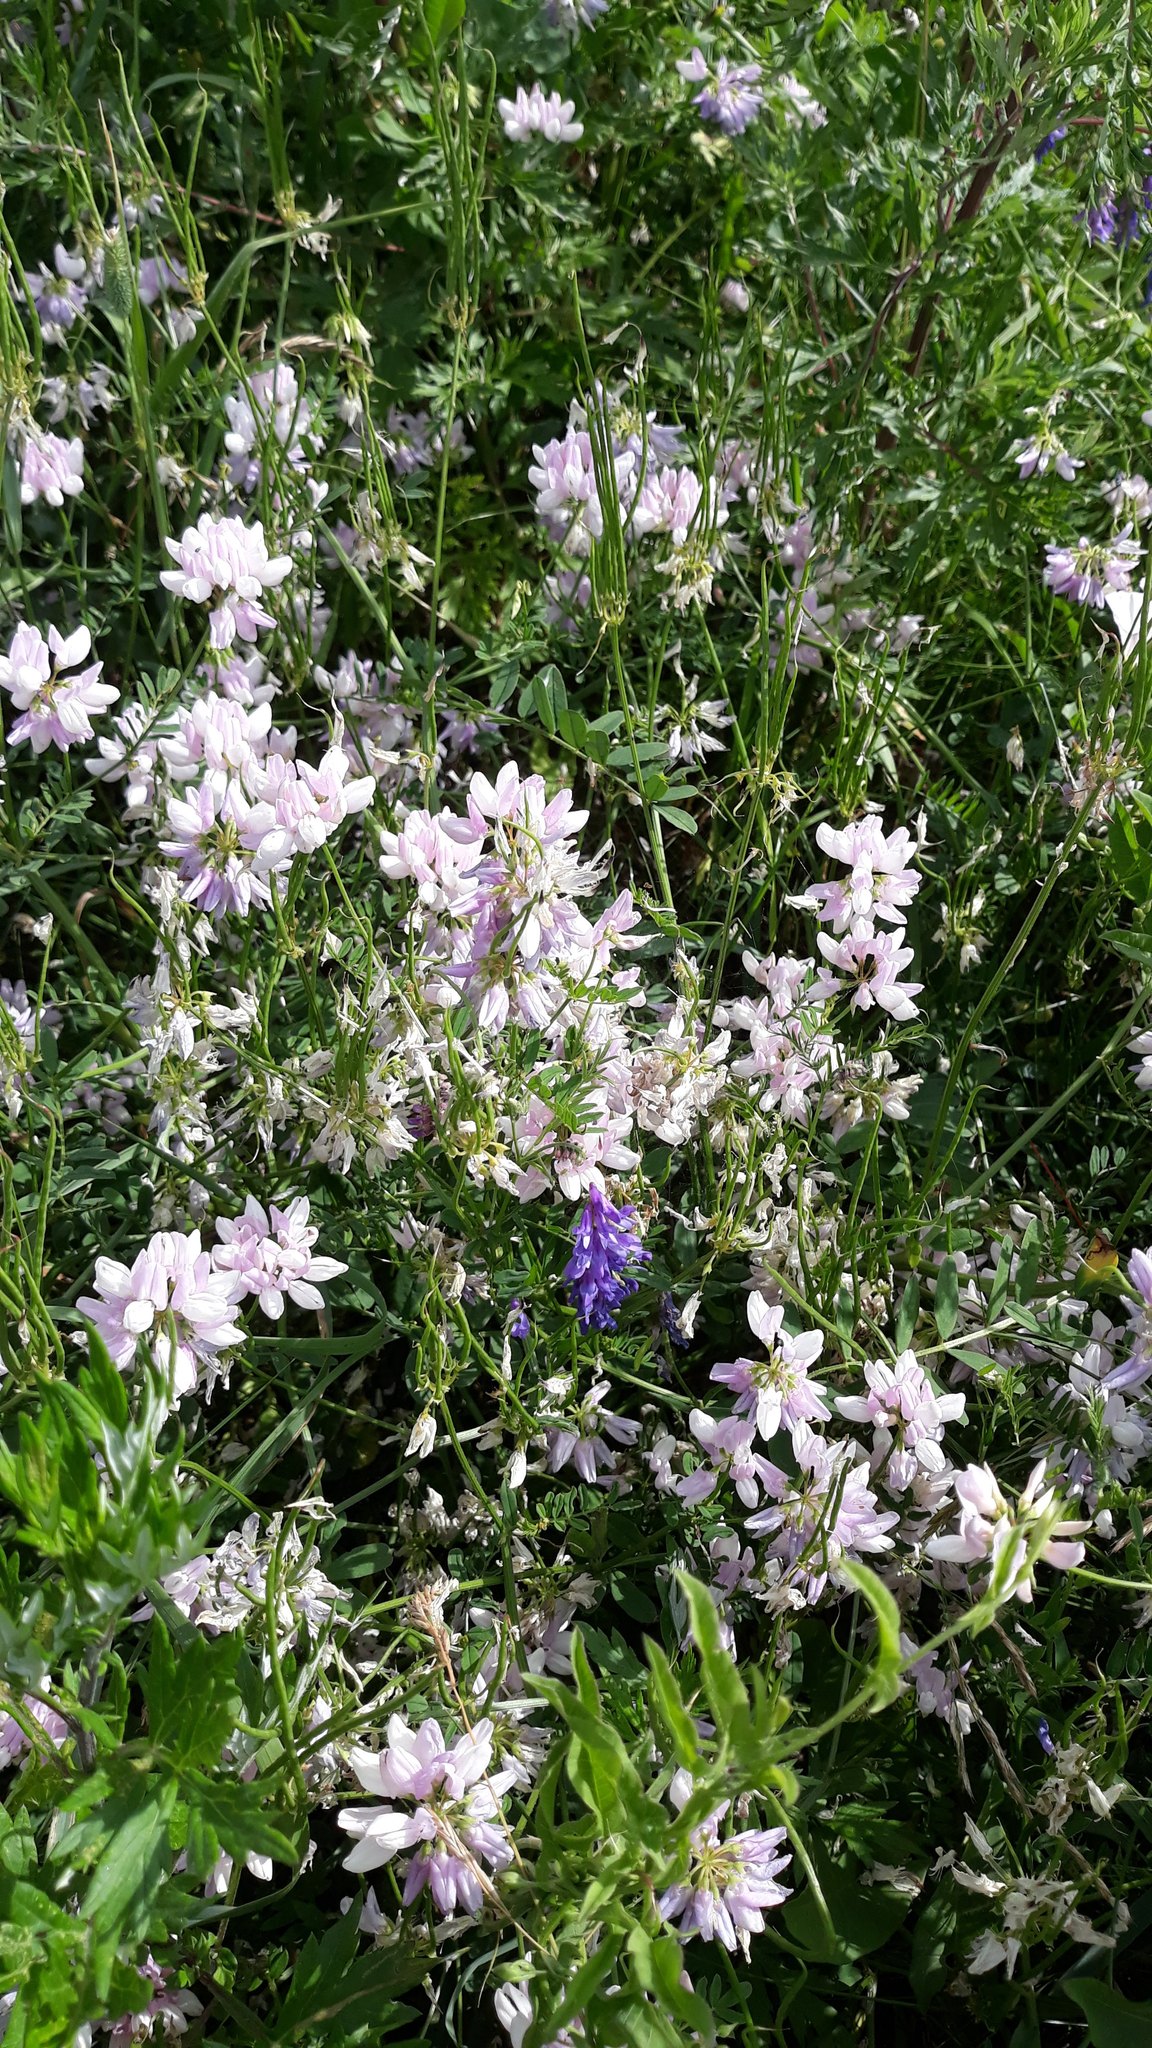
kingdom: Plantae
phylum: Tracheophyta
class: Magnoliopsida
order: Fabales
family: Fabaceae
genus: Coronilla
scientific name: Coronilla varia
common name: Crownvetch
